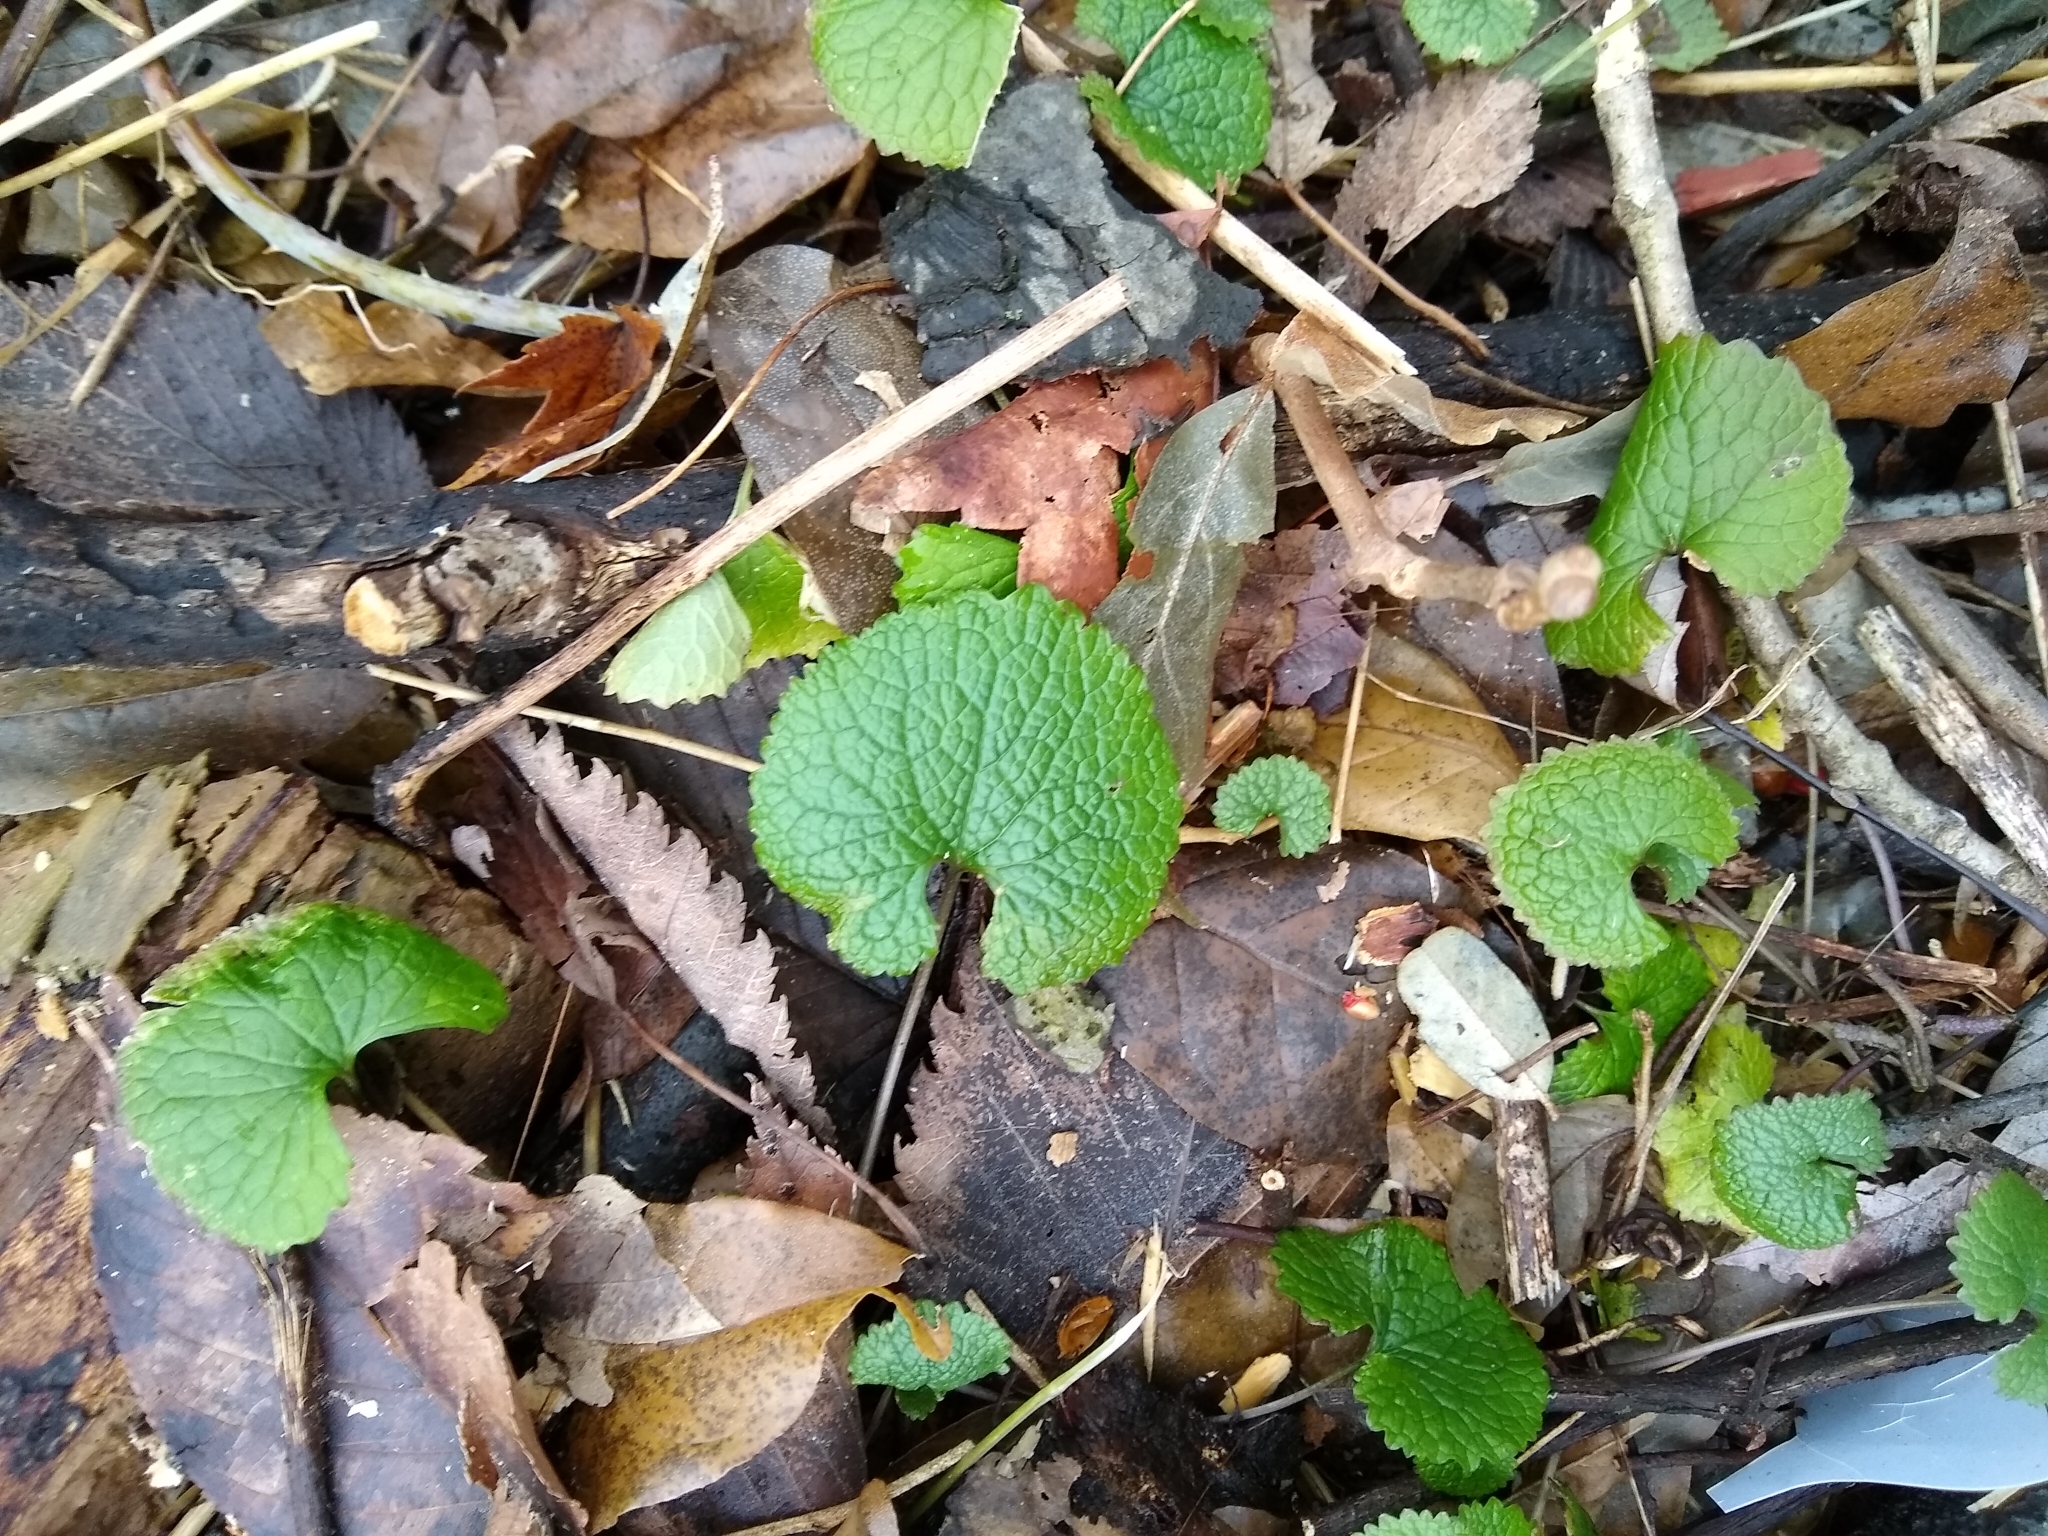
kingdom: Plantae
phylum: Tracheophyta
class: Magnoliopsida
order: Brassicales
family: Brassicaceae
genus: Alliaria
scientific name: Alliaria petiolata
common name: Garlic mustard
